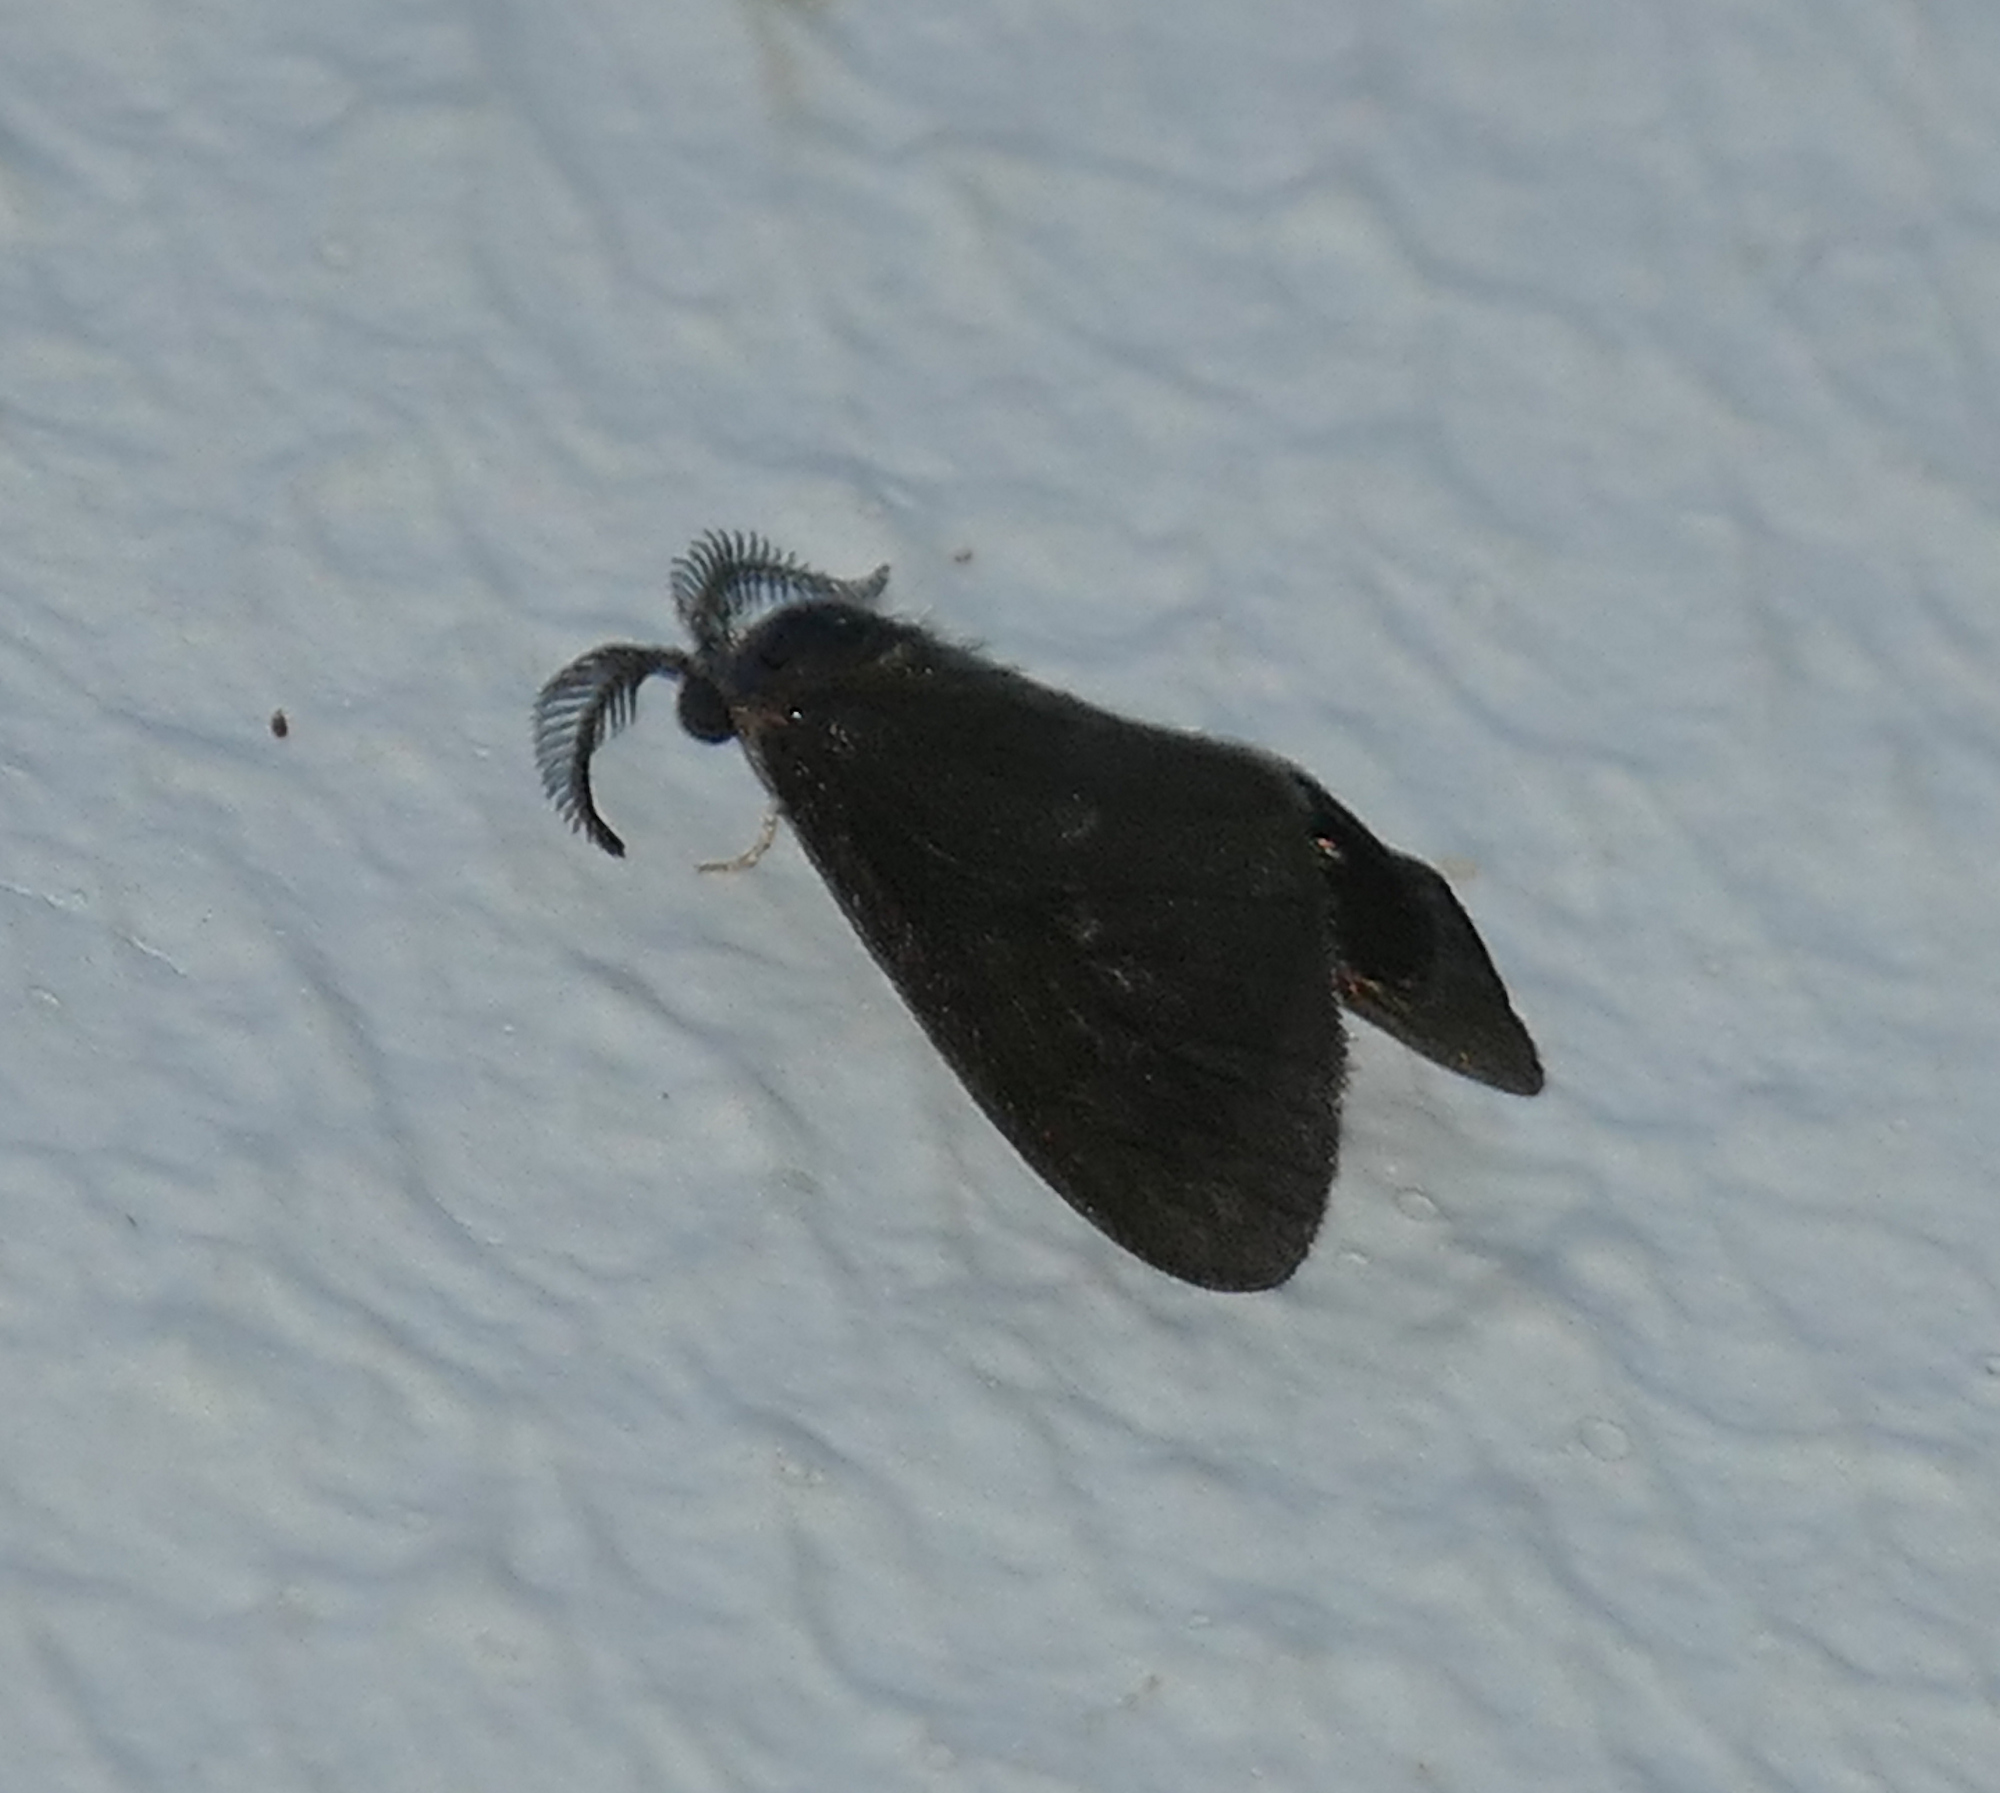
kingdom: Animalia
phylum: Arthropoda
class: Insecta
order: Lepidoptera
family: Psychidae
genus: Cryptothelea
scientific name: Cryptothelea gloverii
